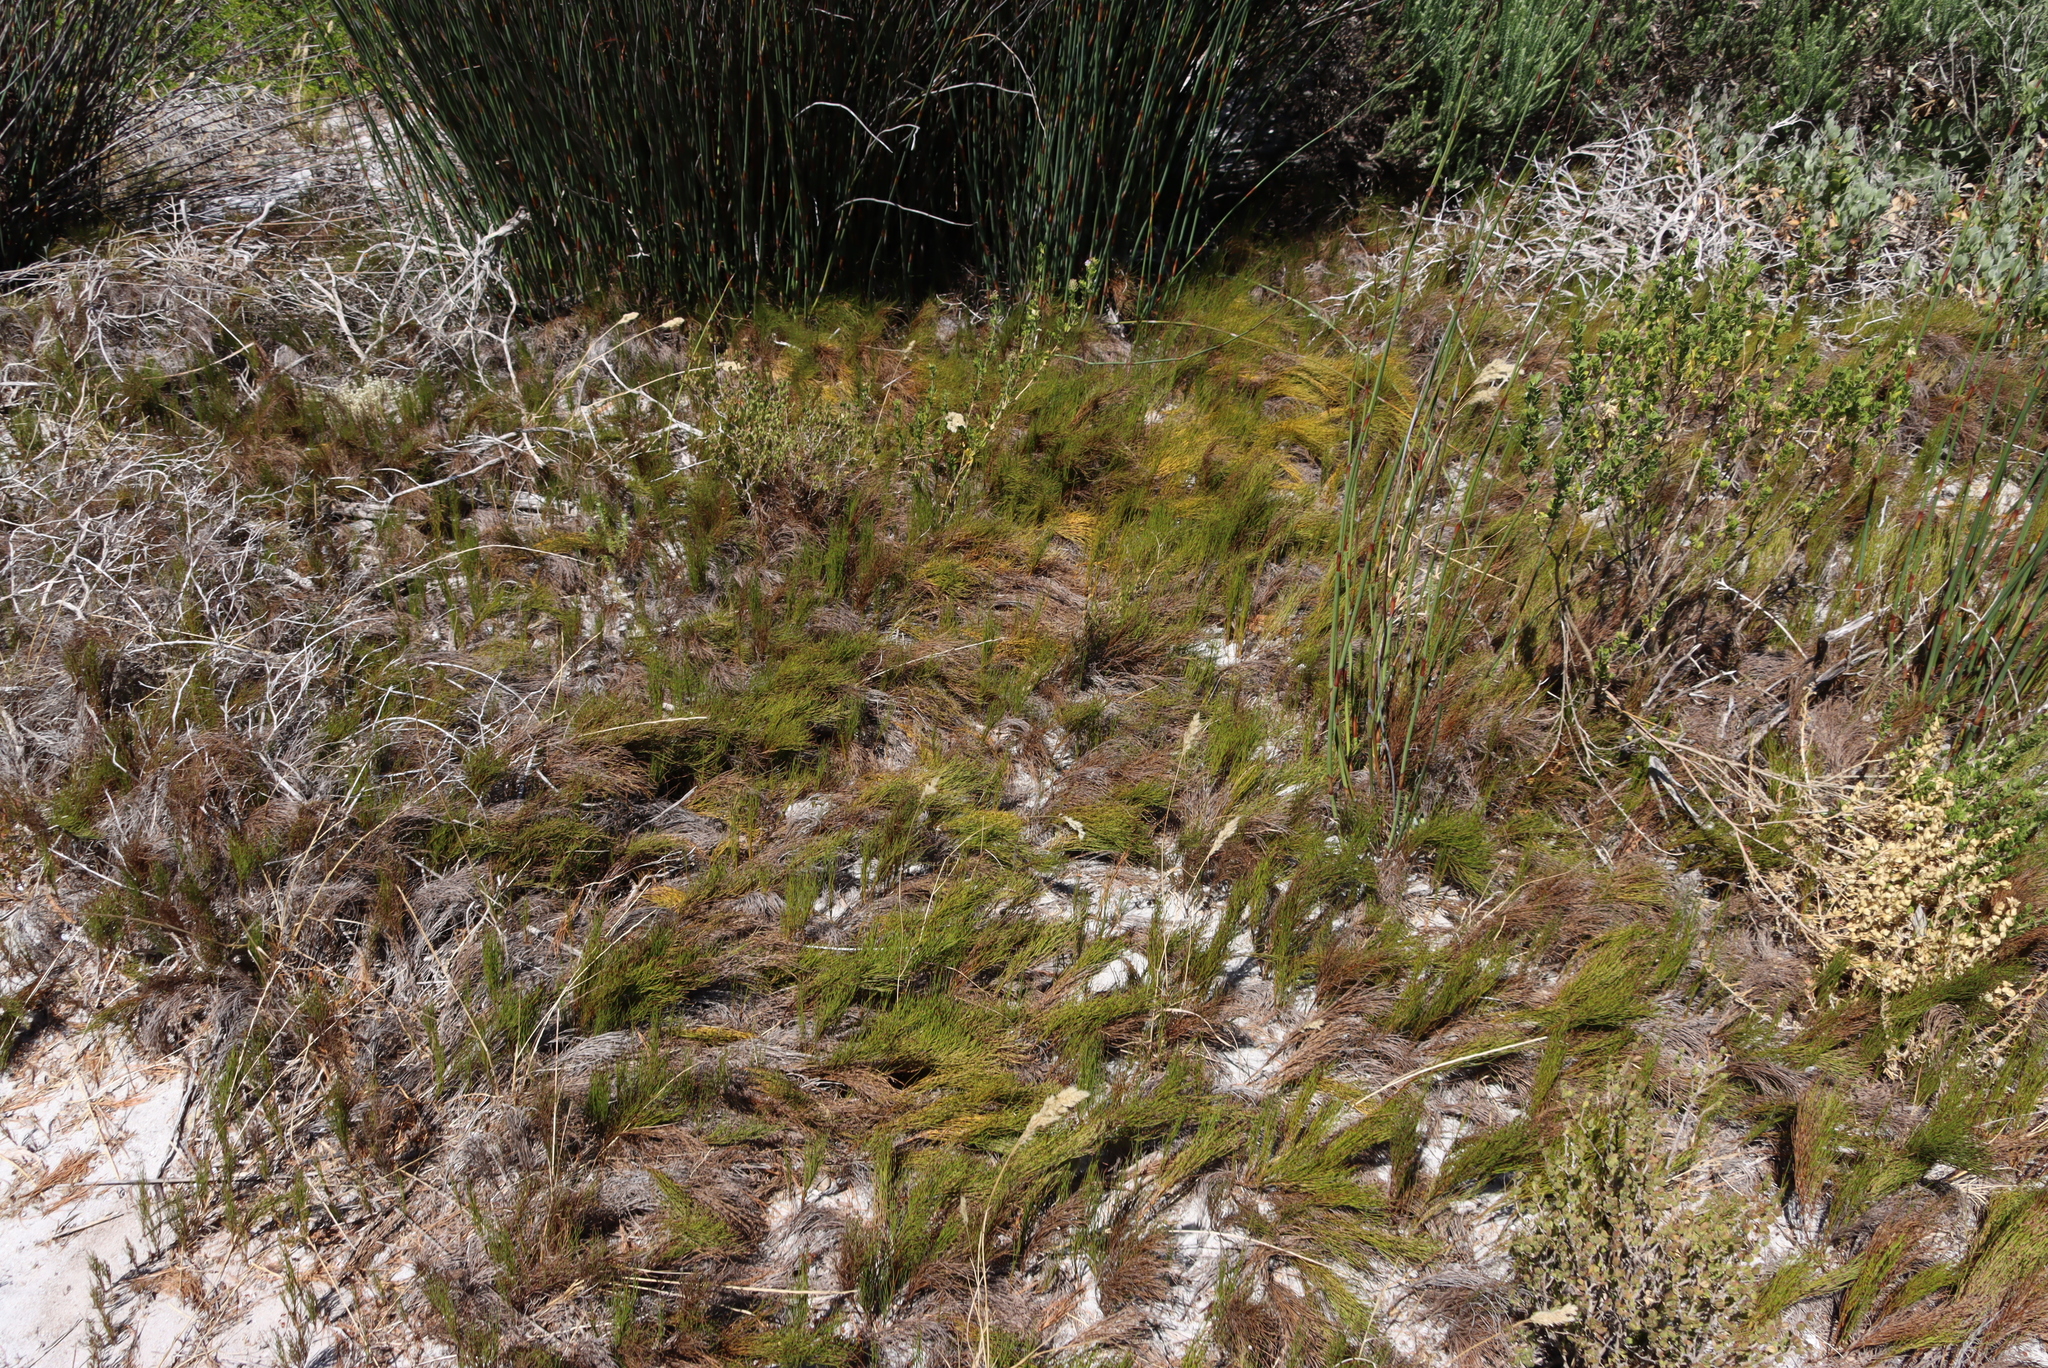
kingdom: Plantae
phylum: Tracheophyta
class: Magnoliopsida
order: Fabales
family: Fabaceae
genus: Psoralea
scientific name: Psoralea bracteolata
